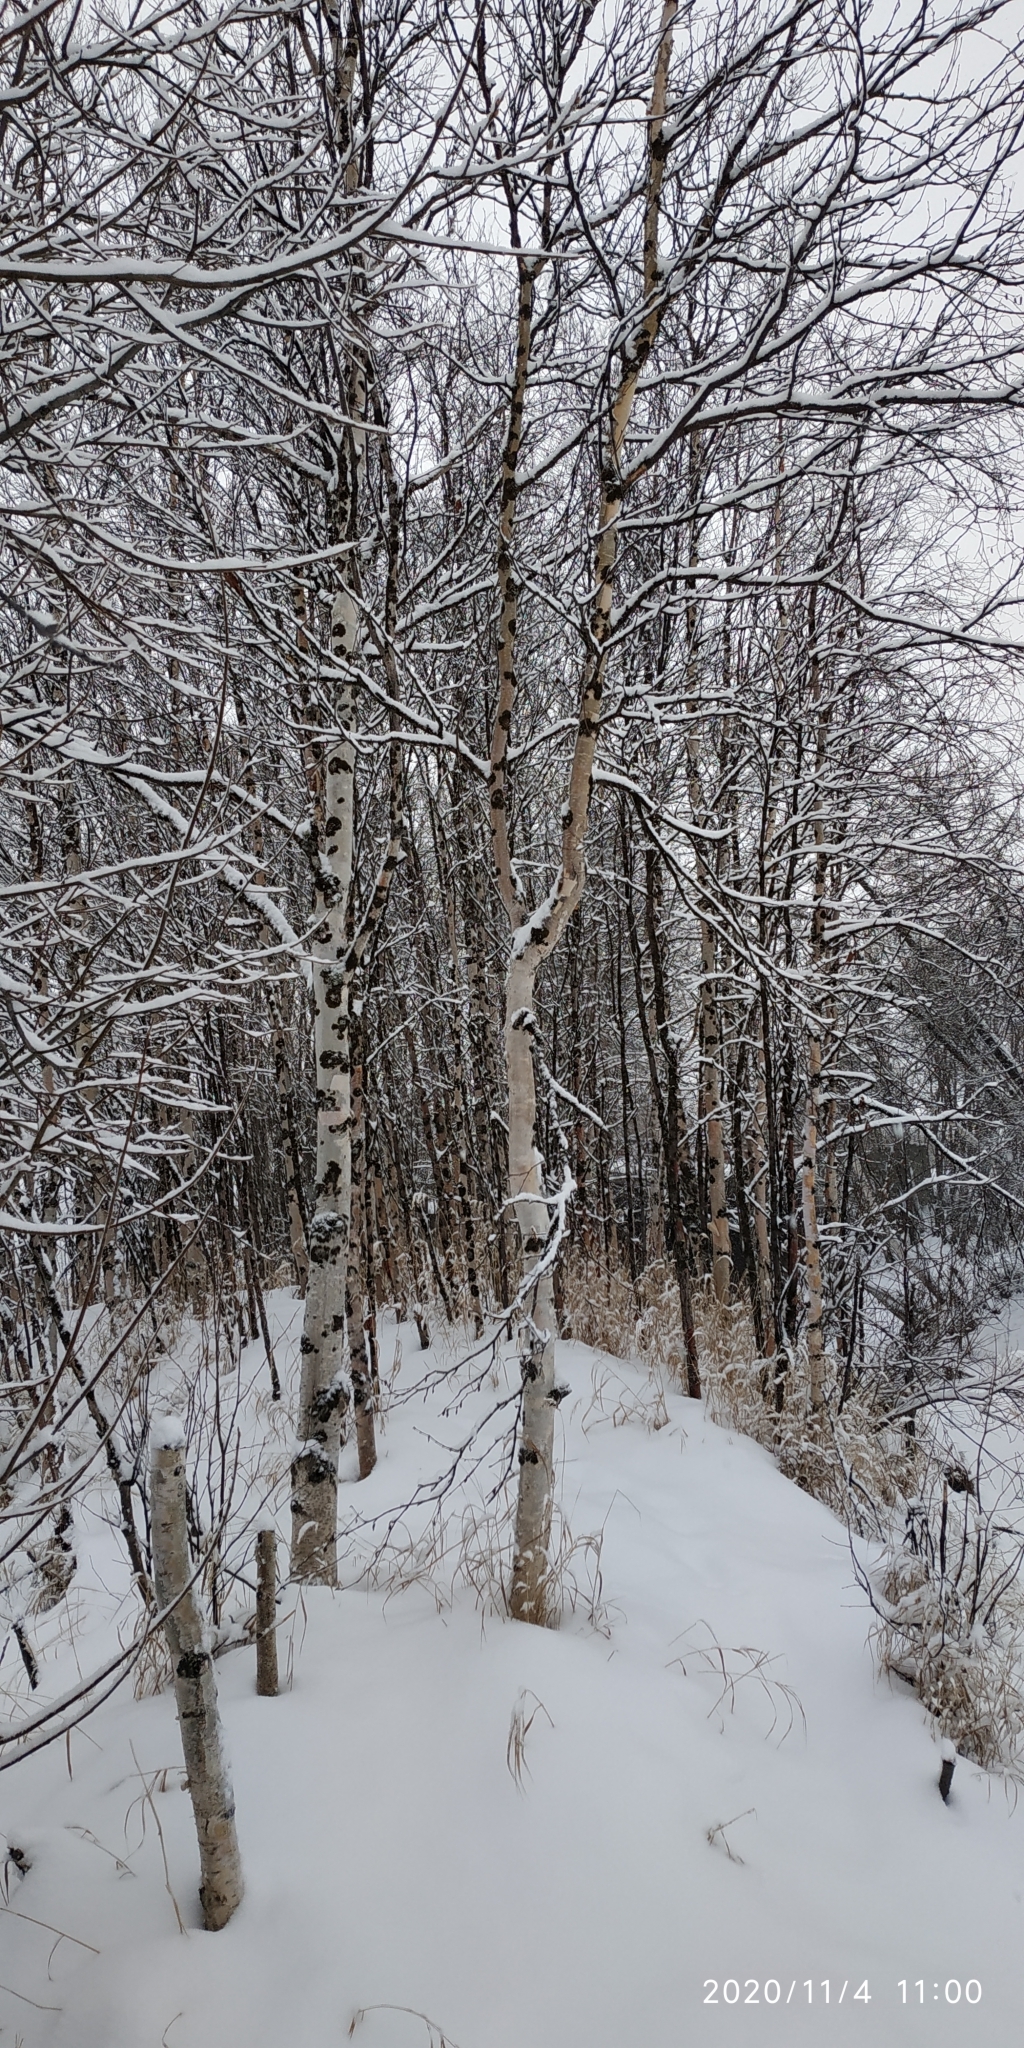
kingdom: Plantae
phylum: Tracheophyta
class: Magnoliopsida
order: Fagales
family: Betulaceae
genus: Betula
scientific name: Betula pubescens
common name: Downy birch
